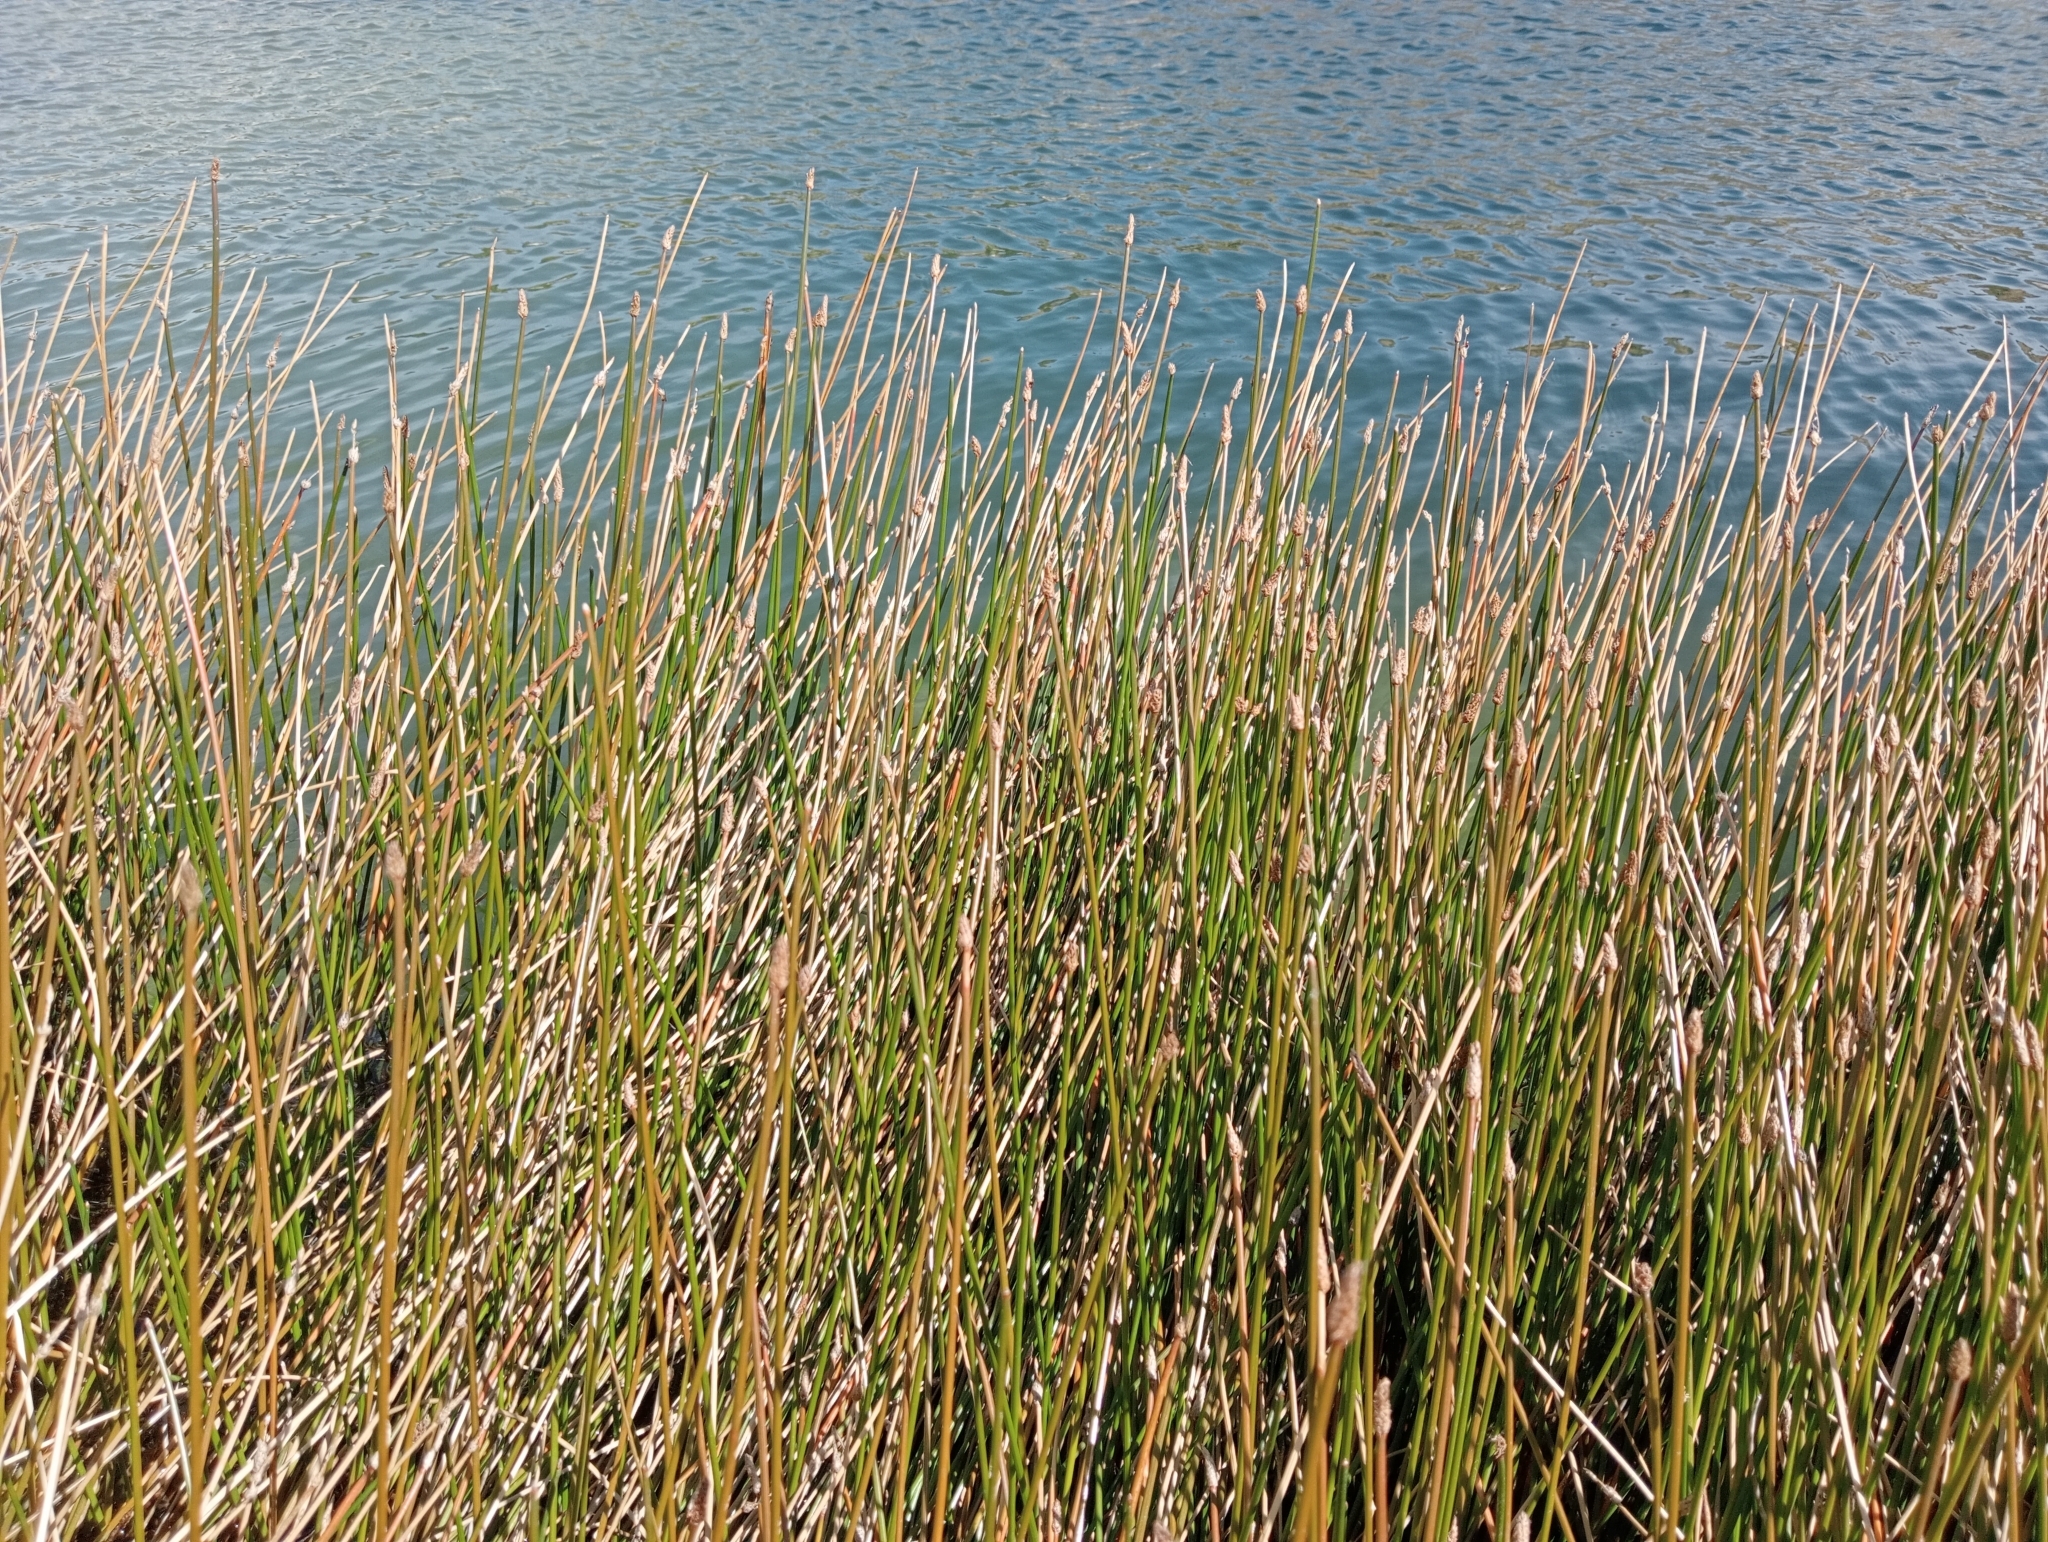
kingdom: Plantae
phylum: Tracheophyta
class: Liliopsida
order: Poales
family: Cyperaceae
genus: Eleocharis
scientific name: Eleocharis acuta
